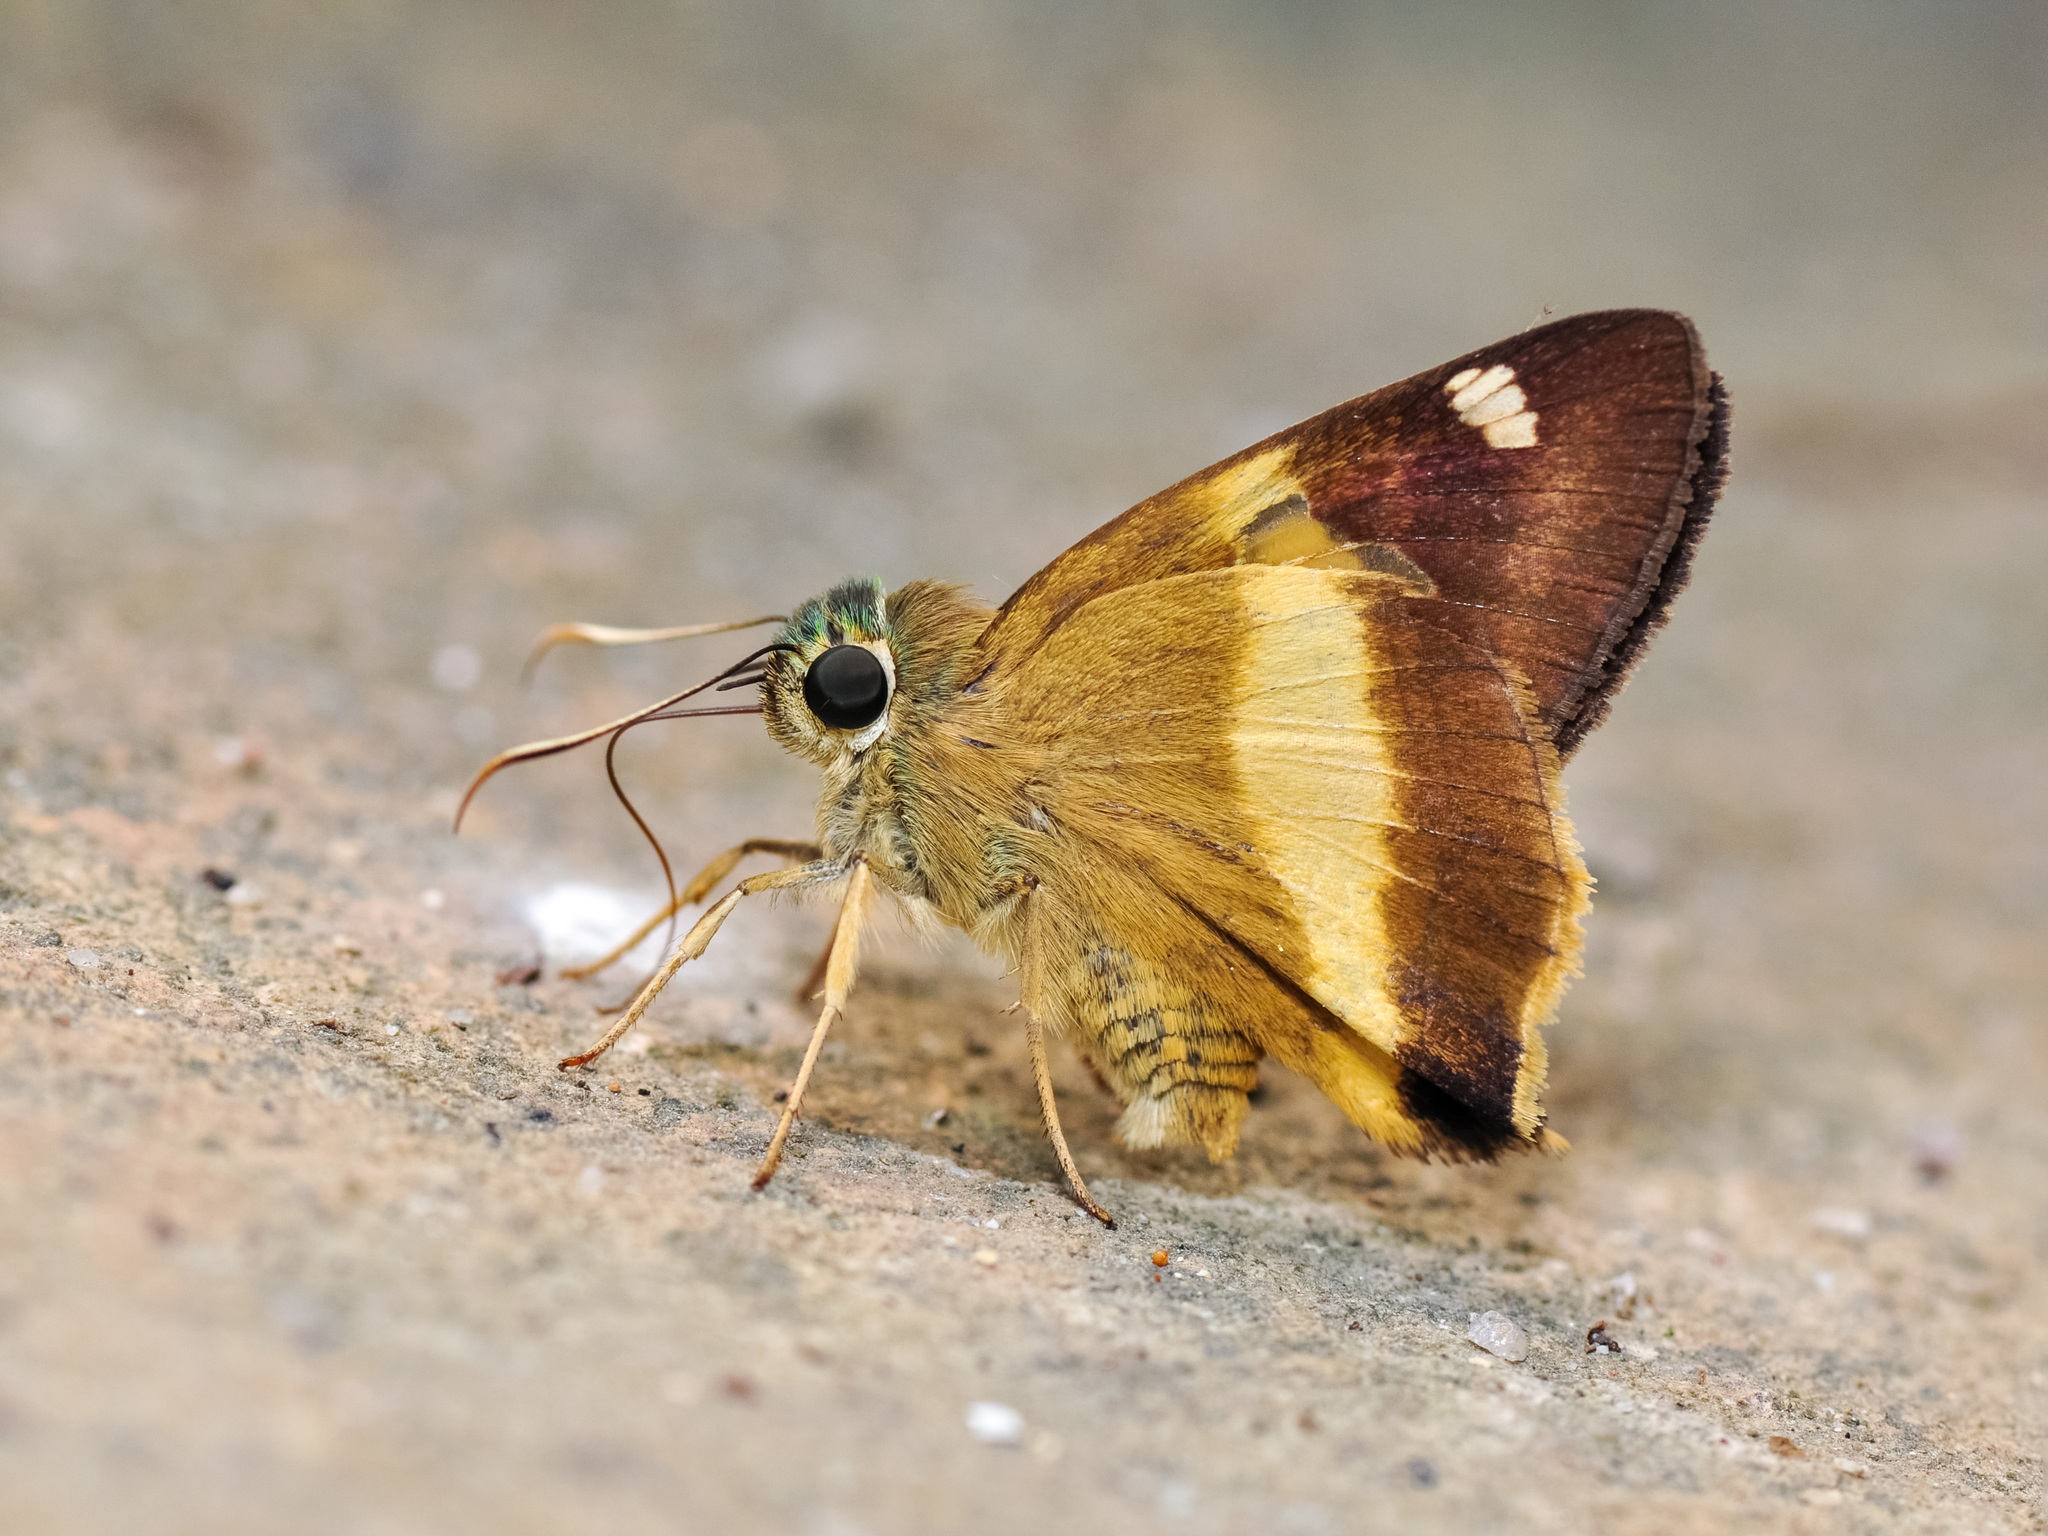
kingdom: Animalia
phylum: Arthropoda
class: Insecta
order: Lepidoptera
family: Hesperiidae
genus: Hasora
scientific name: Hasora schoenherr
